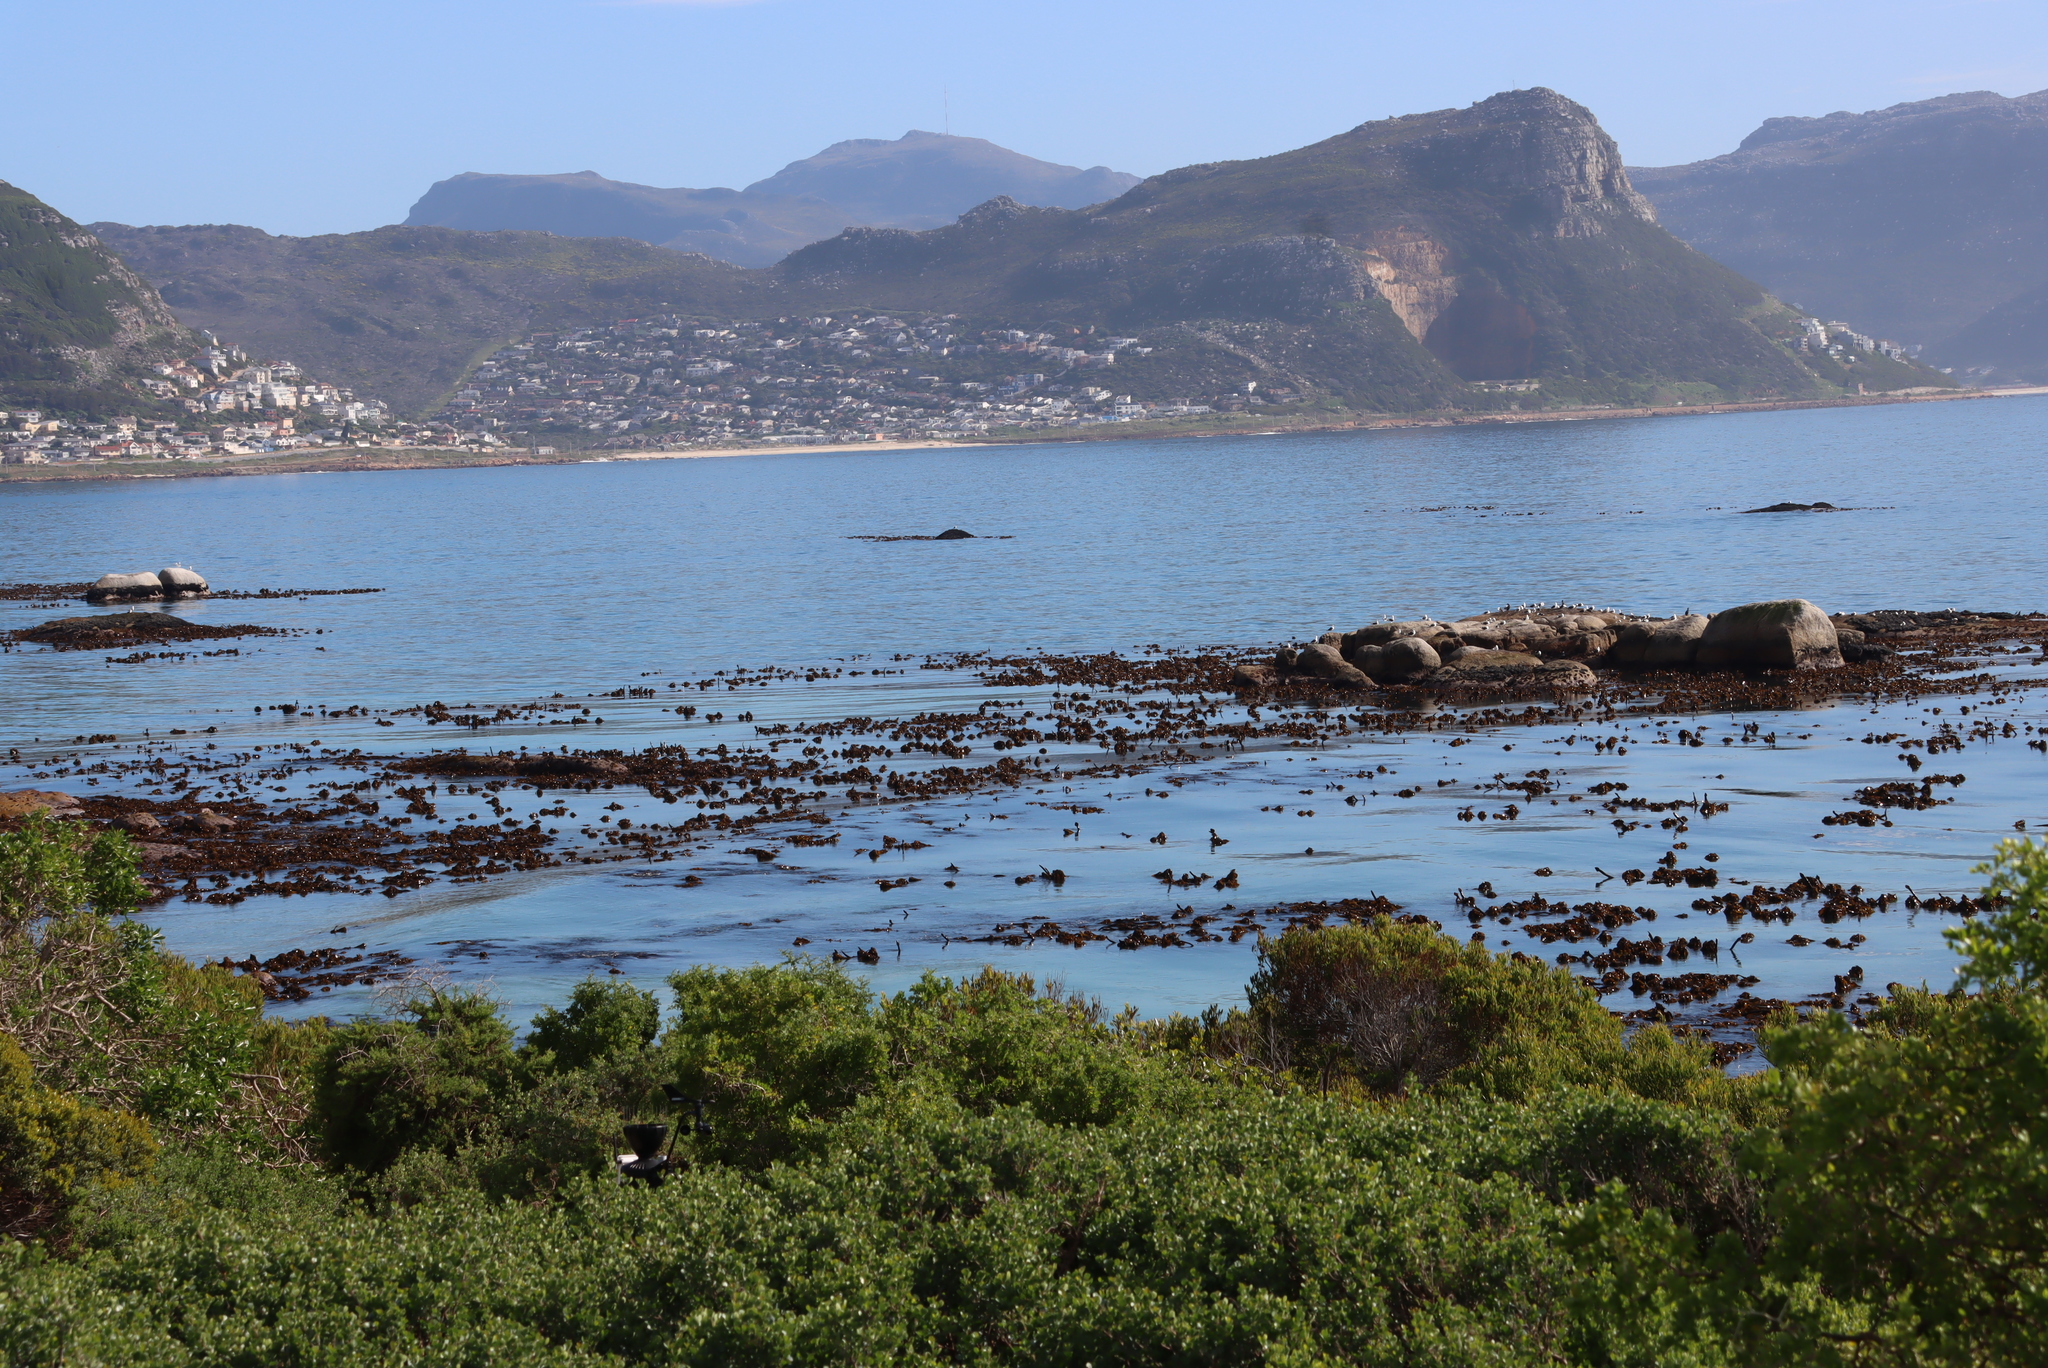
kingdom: Chromista
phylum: Ochrophyta
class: Phaeophyceae
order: Laminariales
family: Lessoniaceae
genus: Ecklonia
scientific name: Ecklonia
